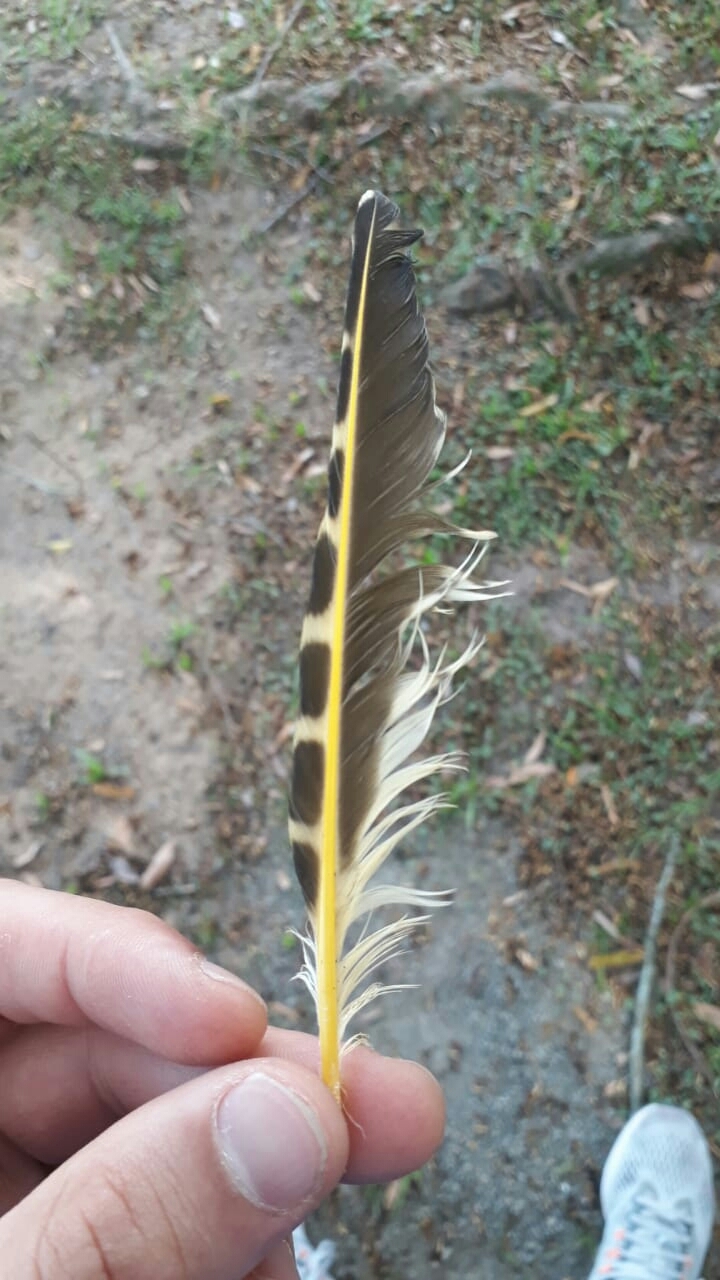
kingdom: Animalia
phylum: Chordata
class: Aves
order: Piciformes
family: Picidae
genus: Colaptes
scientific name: Colaptes
